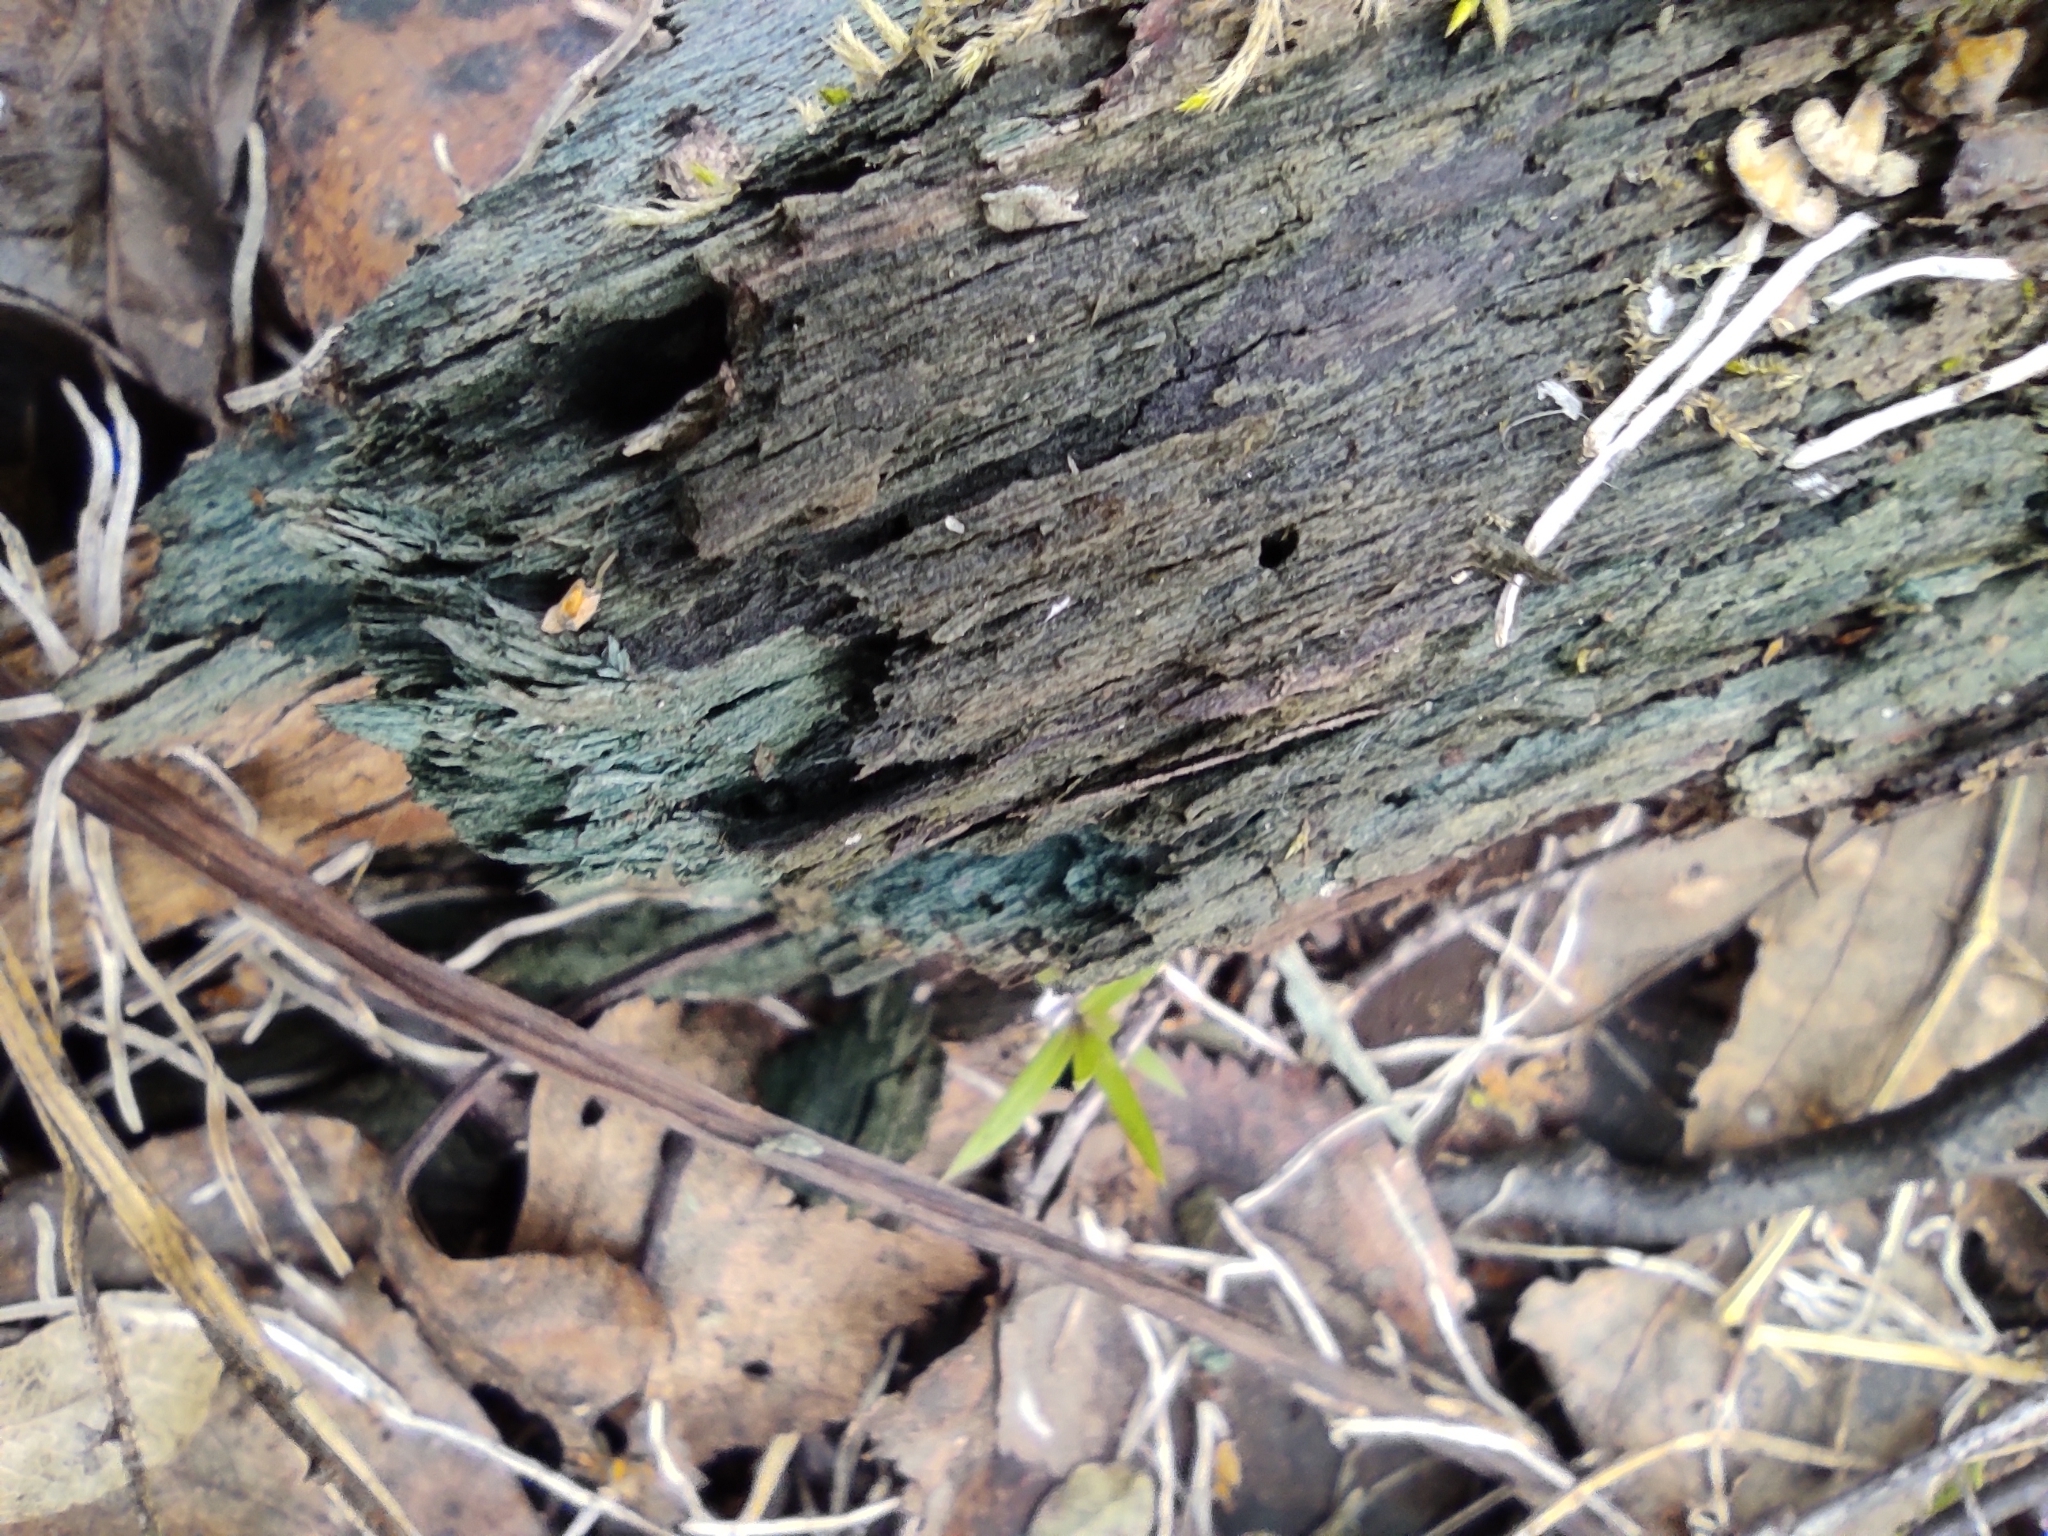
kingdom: Fungi
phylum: Ascomycota
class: Leotiomycetes
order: Helotiales
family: Chlorociboriaceae
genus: Chlorociboria
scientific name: Chlorociboria
